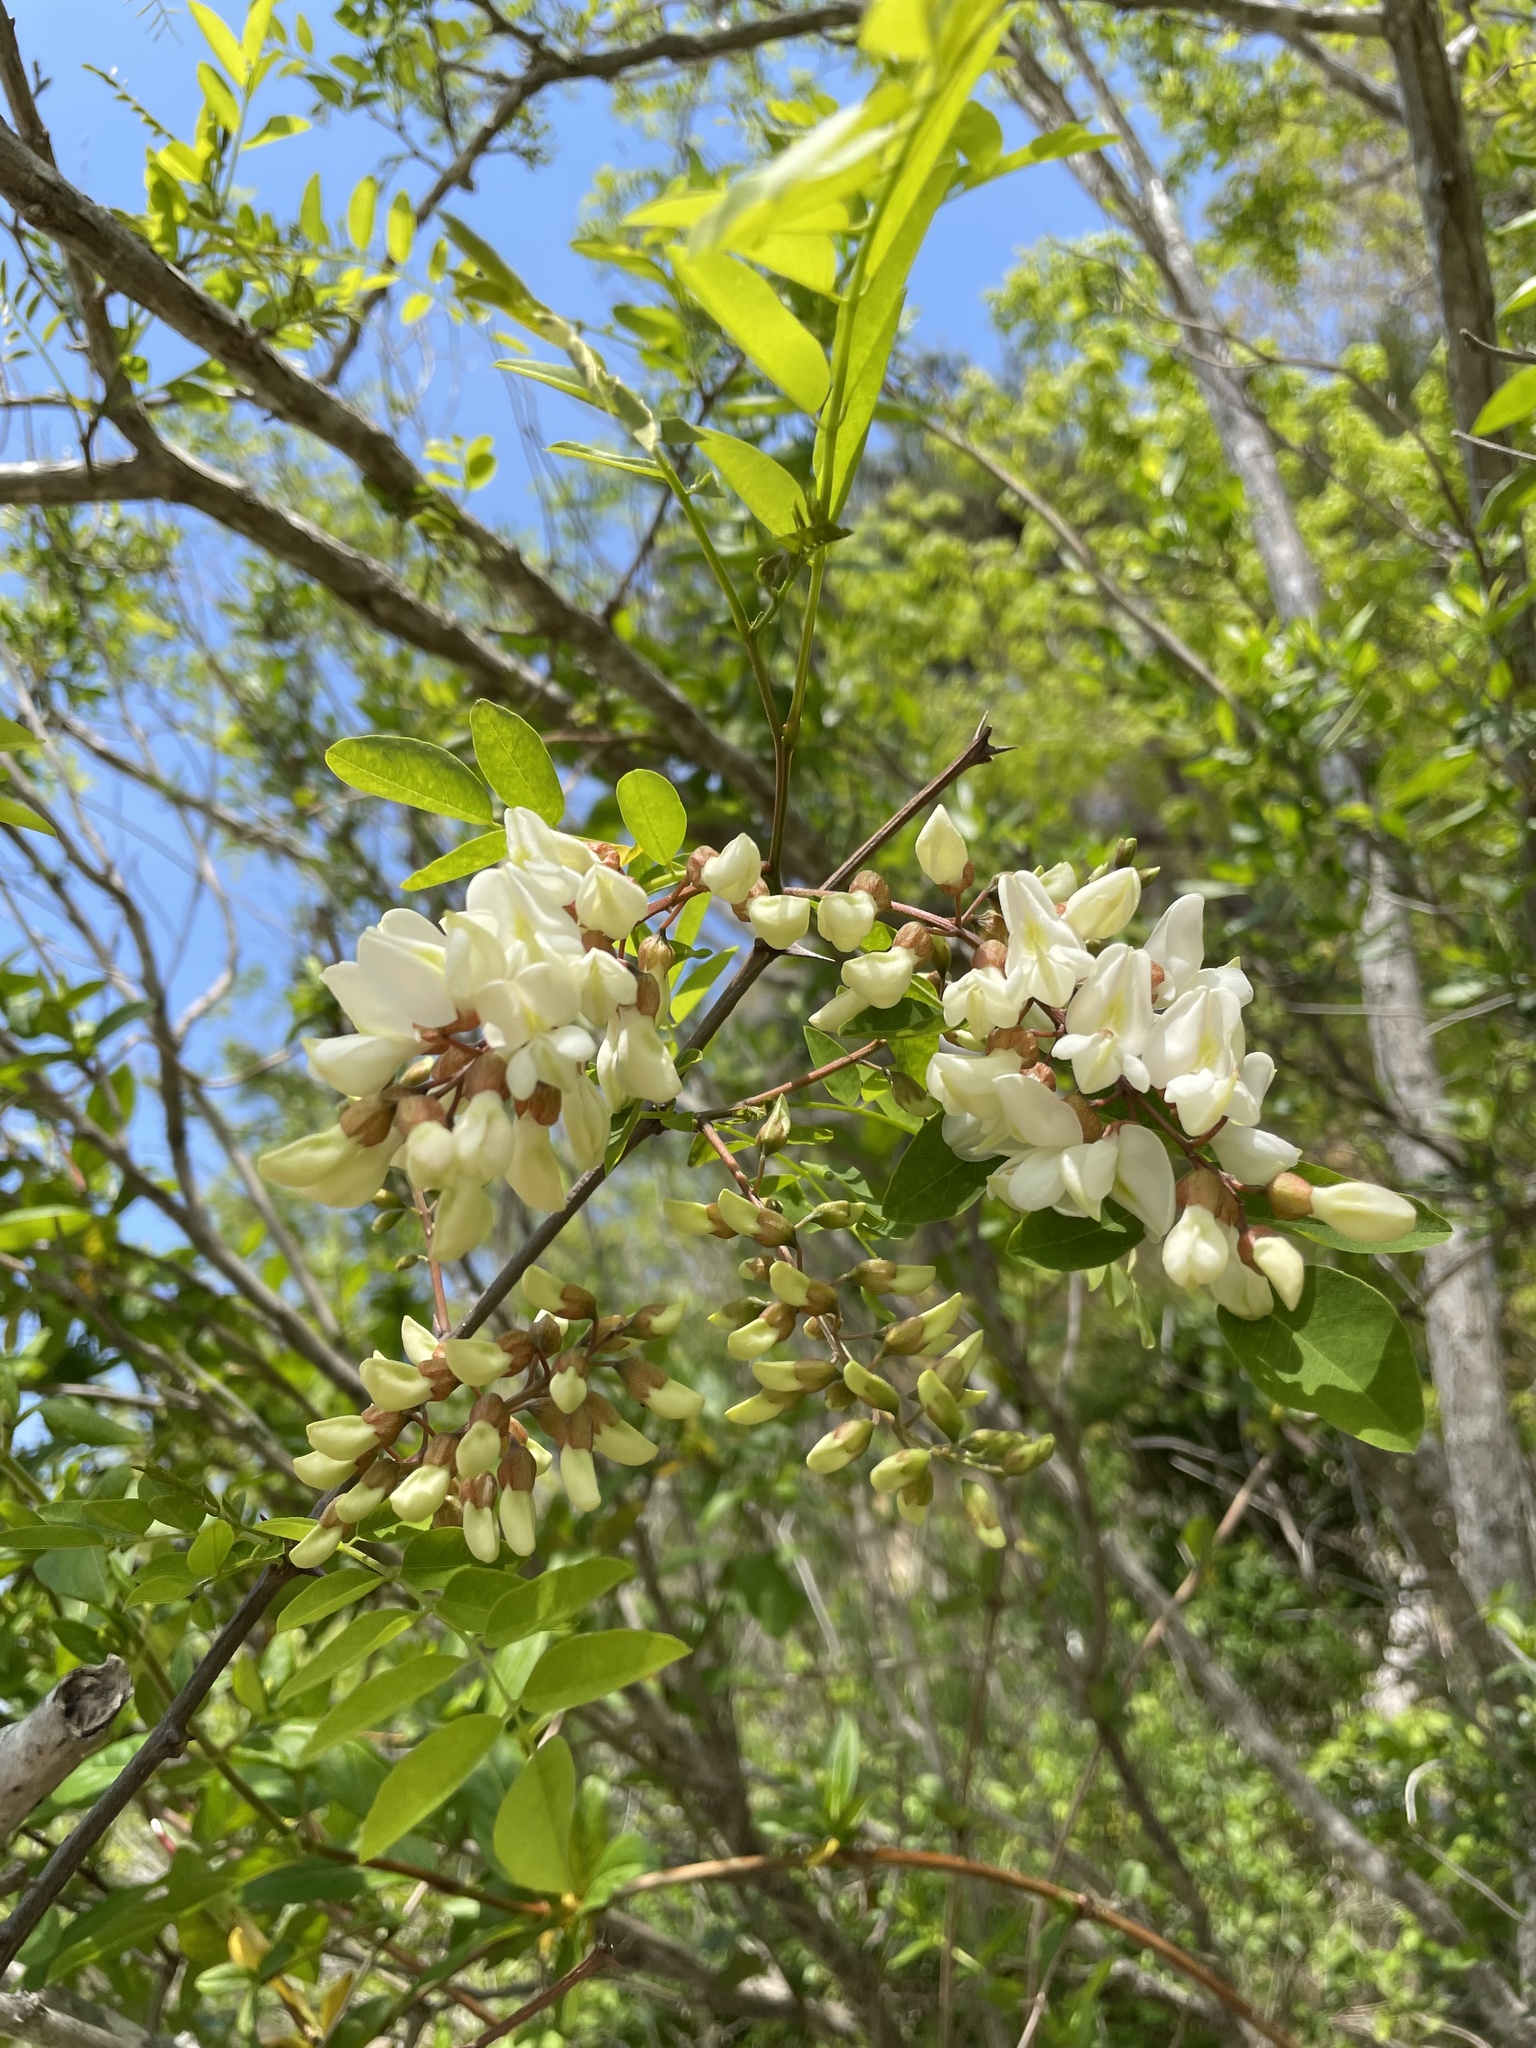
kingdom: Plantae
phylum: Tracheophyta
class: Magnoliopsida
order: Fabales
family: Fabaceae
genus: Robinia
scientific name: Robinia pseudoacacia
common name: Black locust
